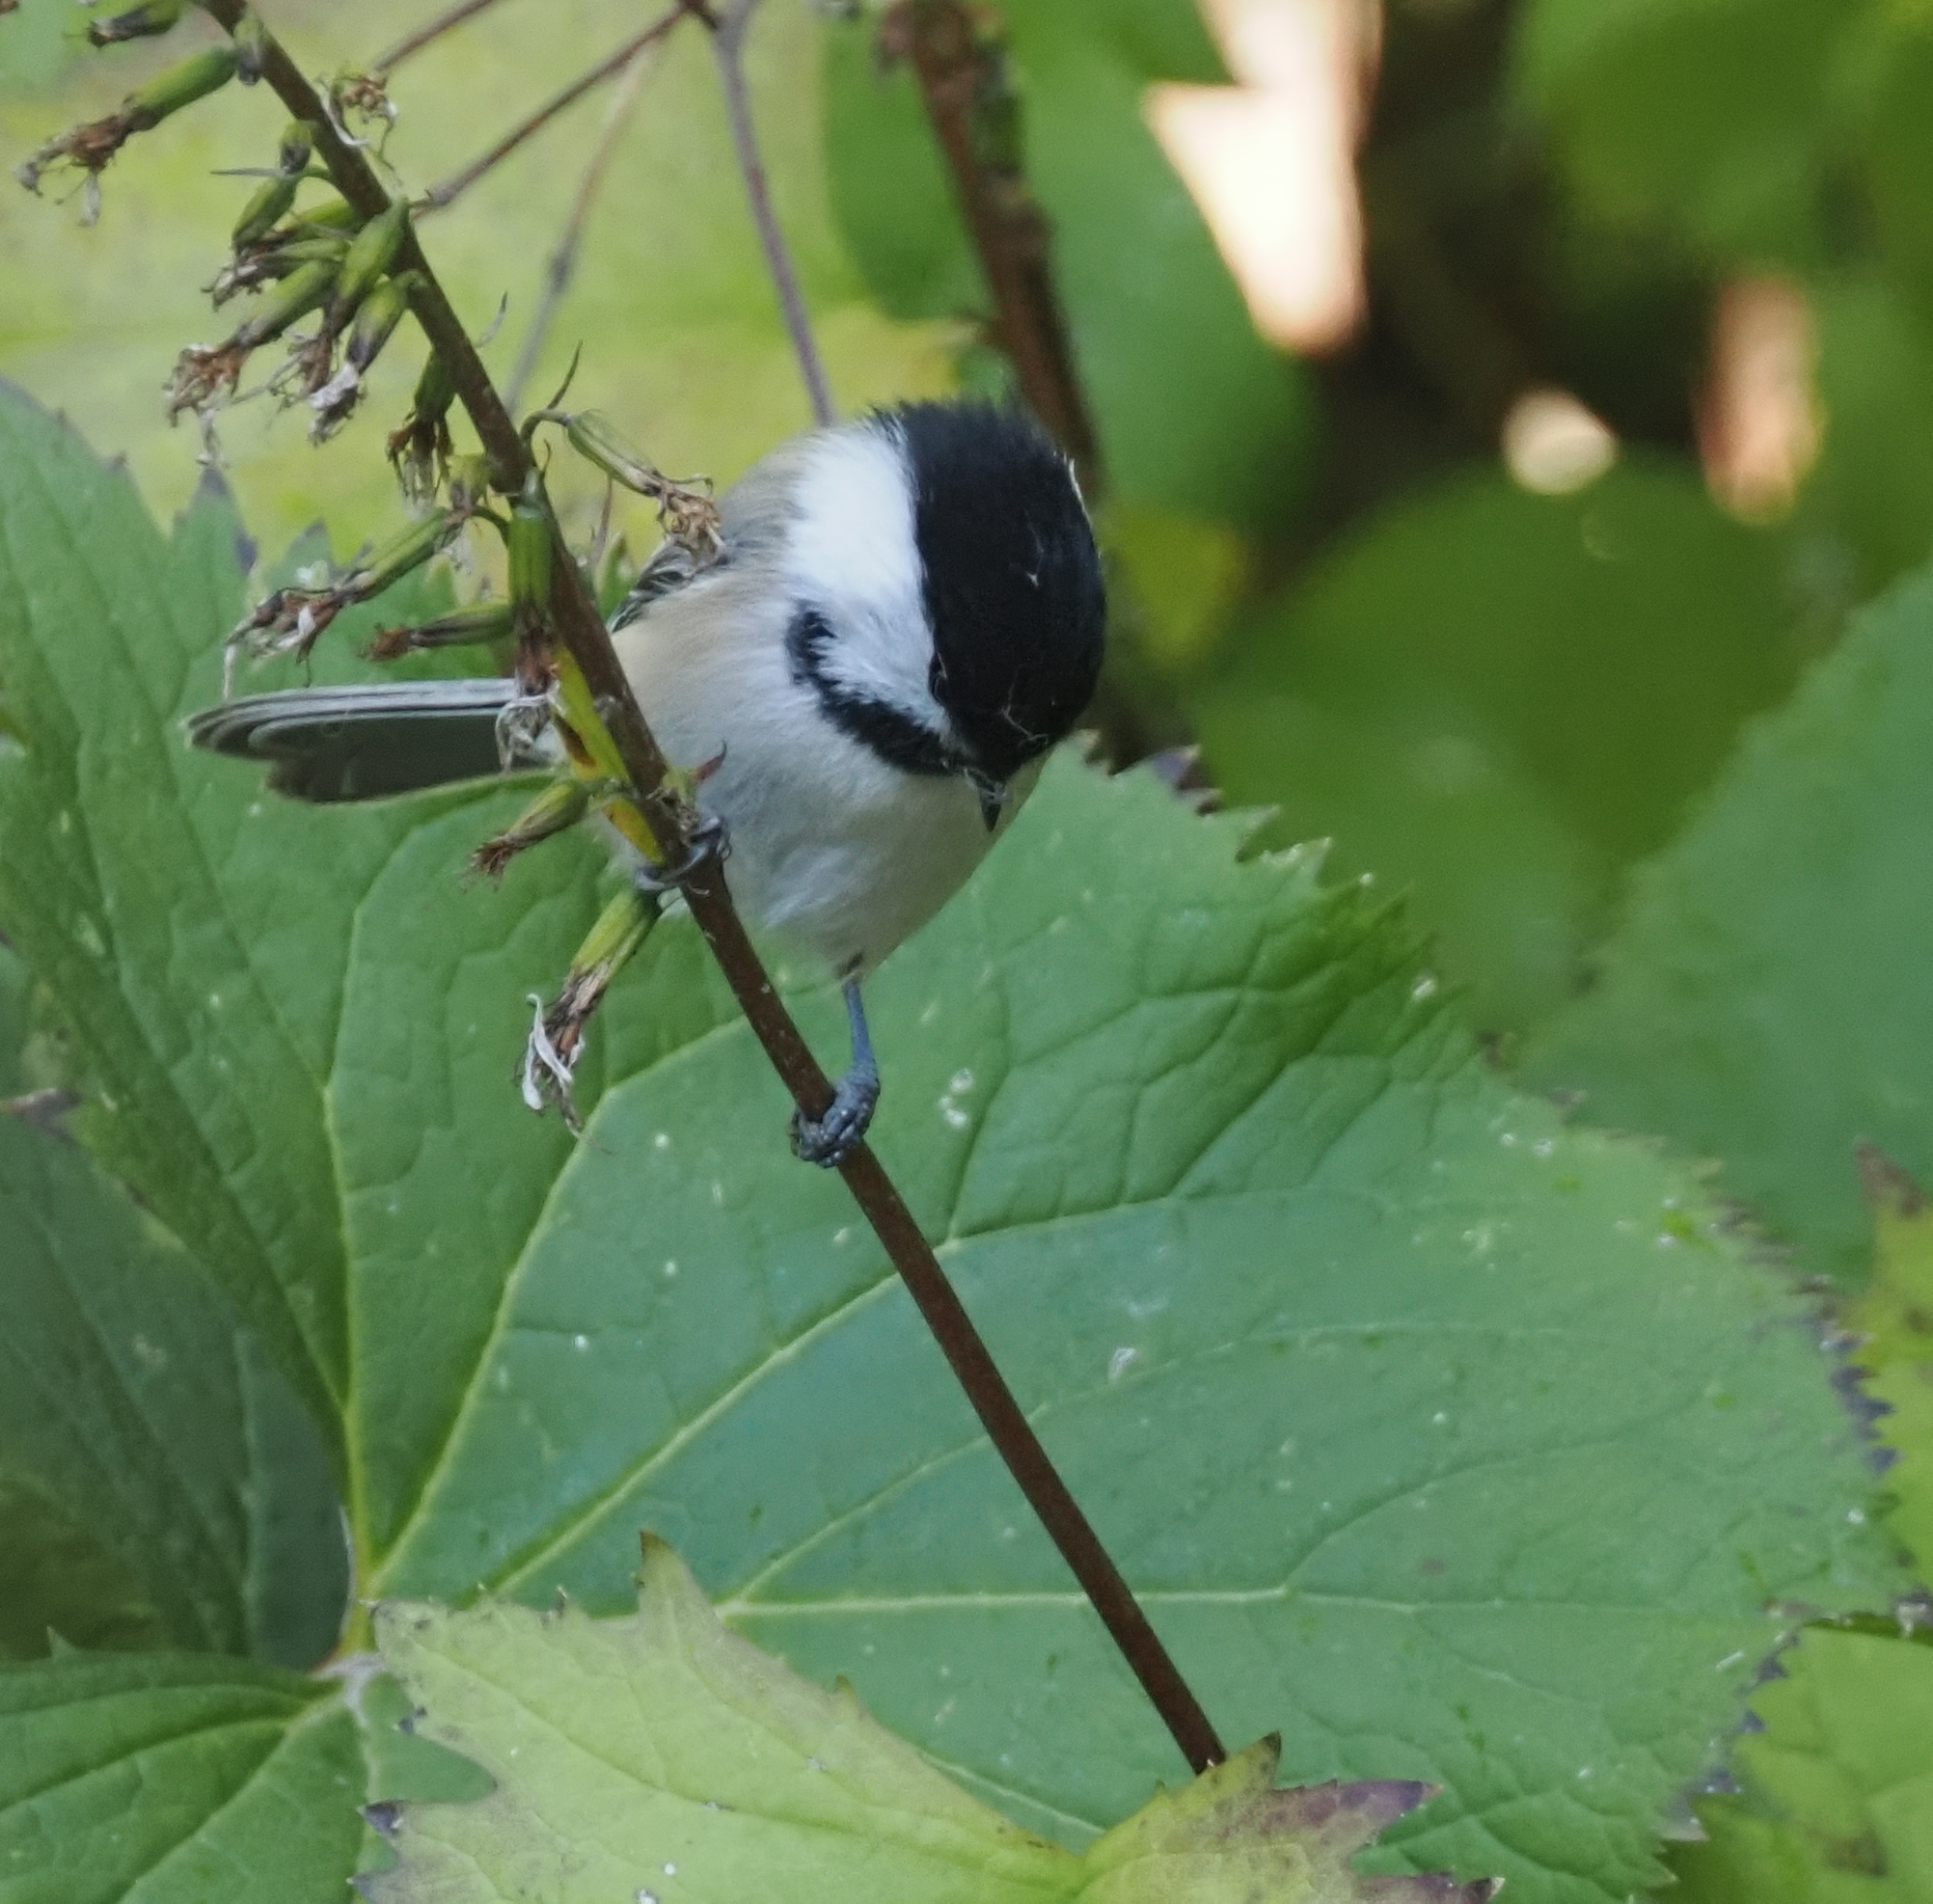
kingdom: Animalia
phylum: Chordata
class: Aves
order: Passeriformes
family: Paridae
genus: Poecile
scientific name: Poecile atricapillus
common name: Black-capped chickadee
